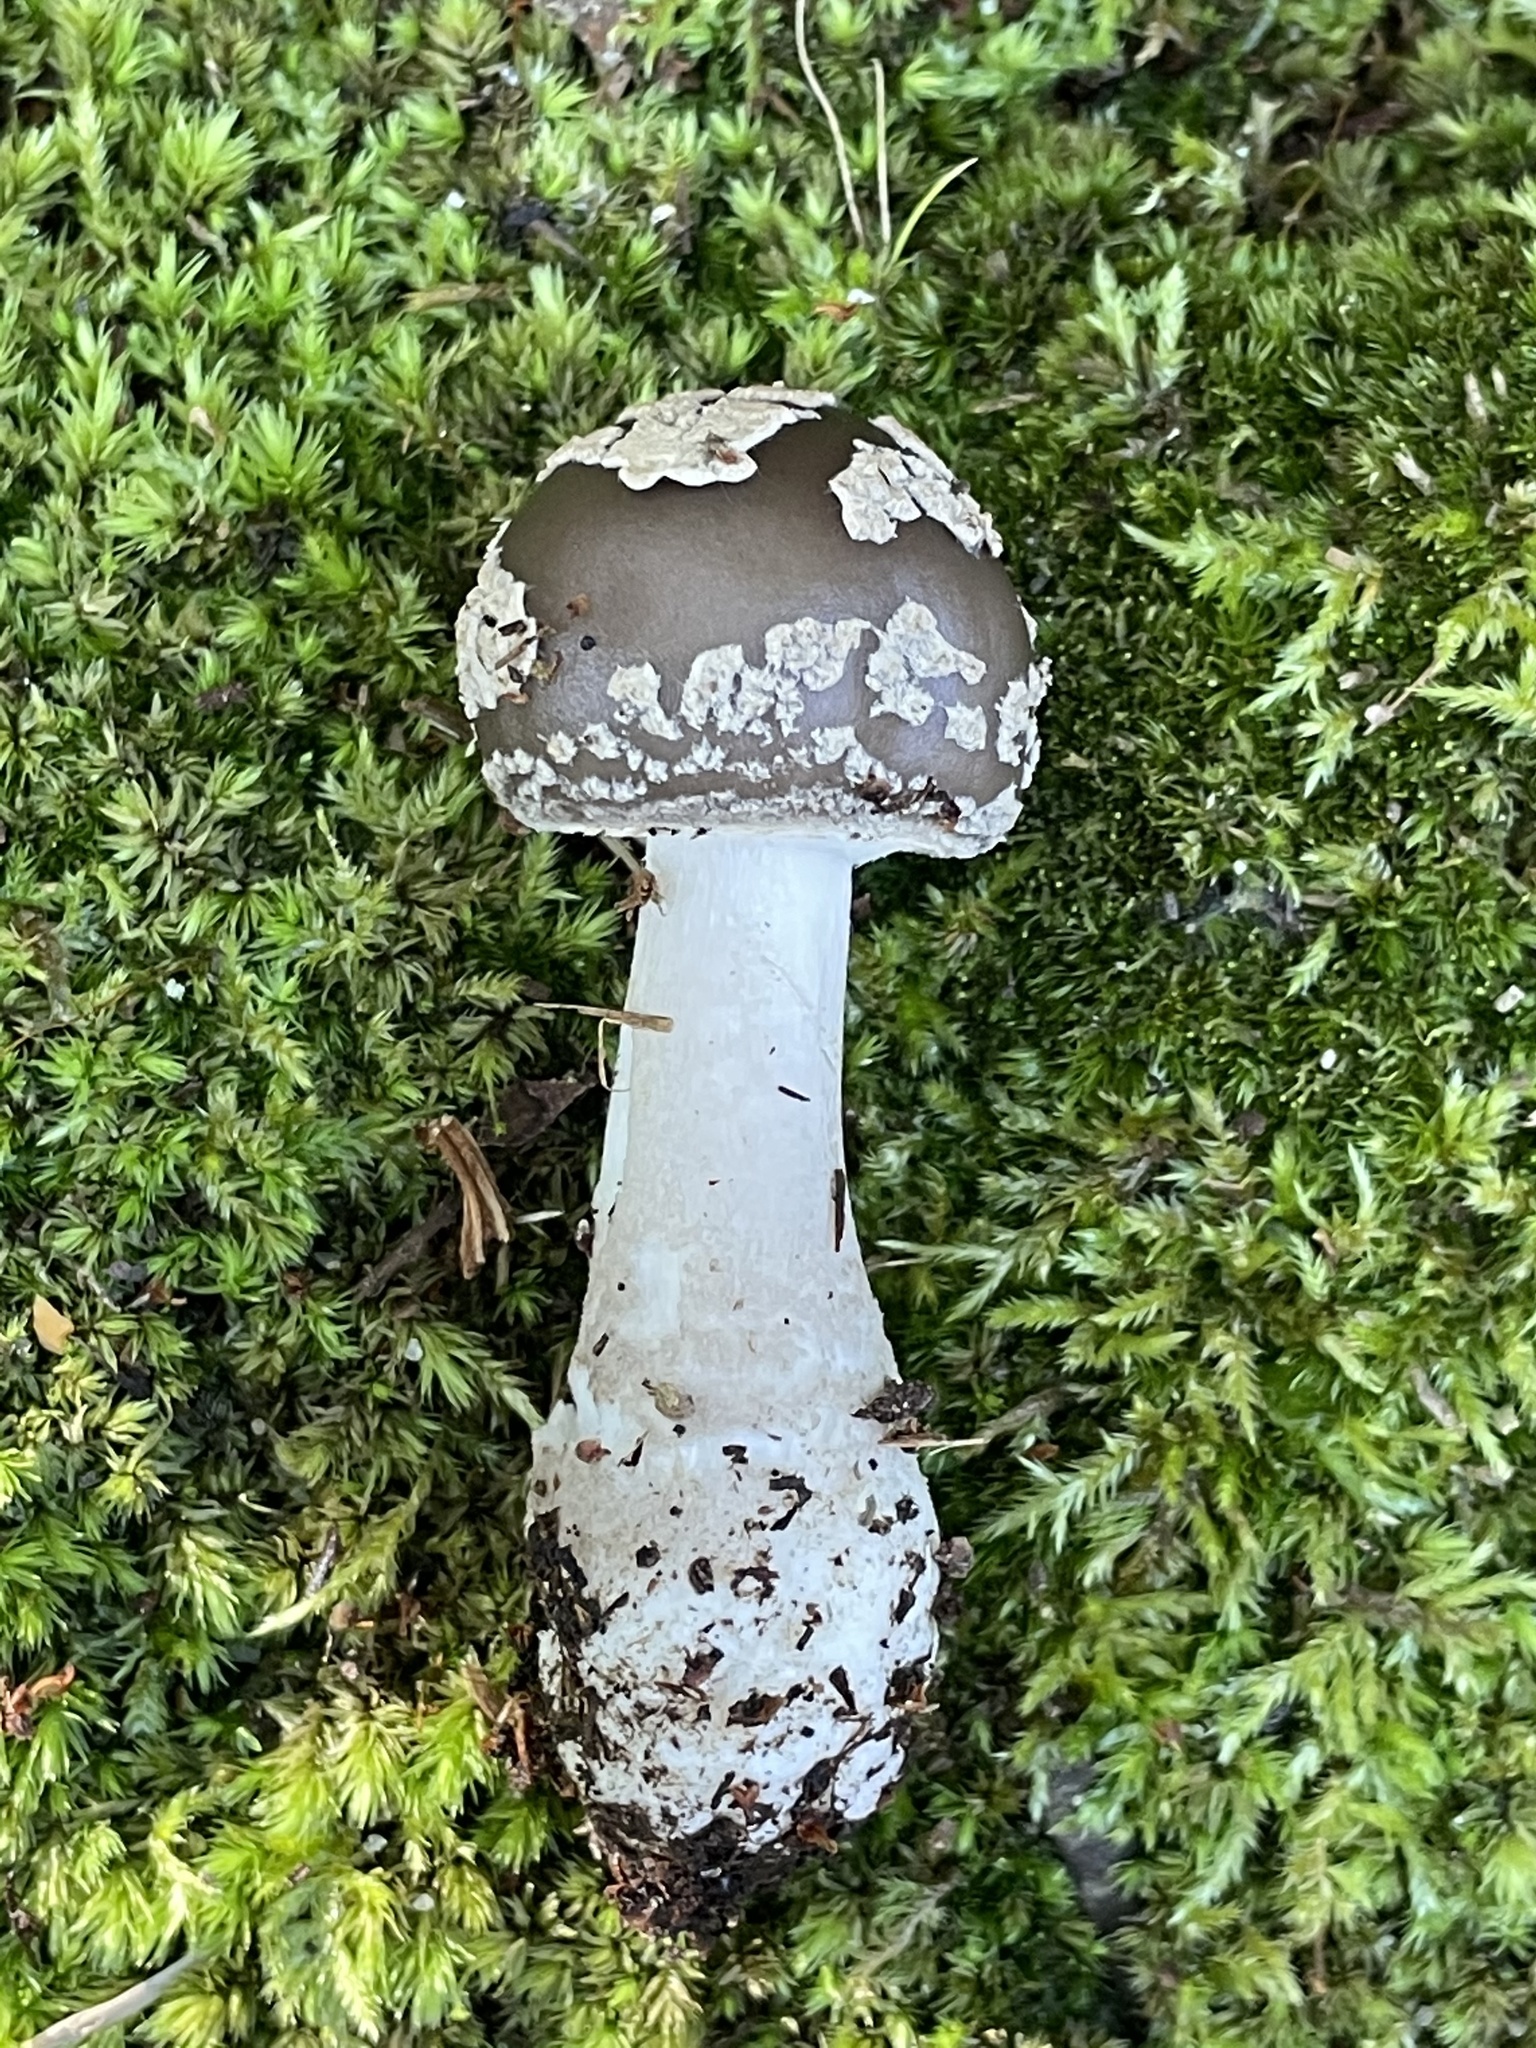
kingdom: Fungi
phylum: Basidiomycota
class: Agaricomycetes
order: Agaricales
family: Amanitaceae
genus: Amanita
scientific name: Amanita morrisii
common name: Morris' amanita
